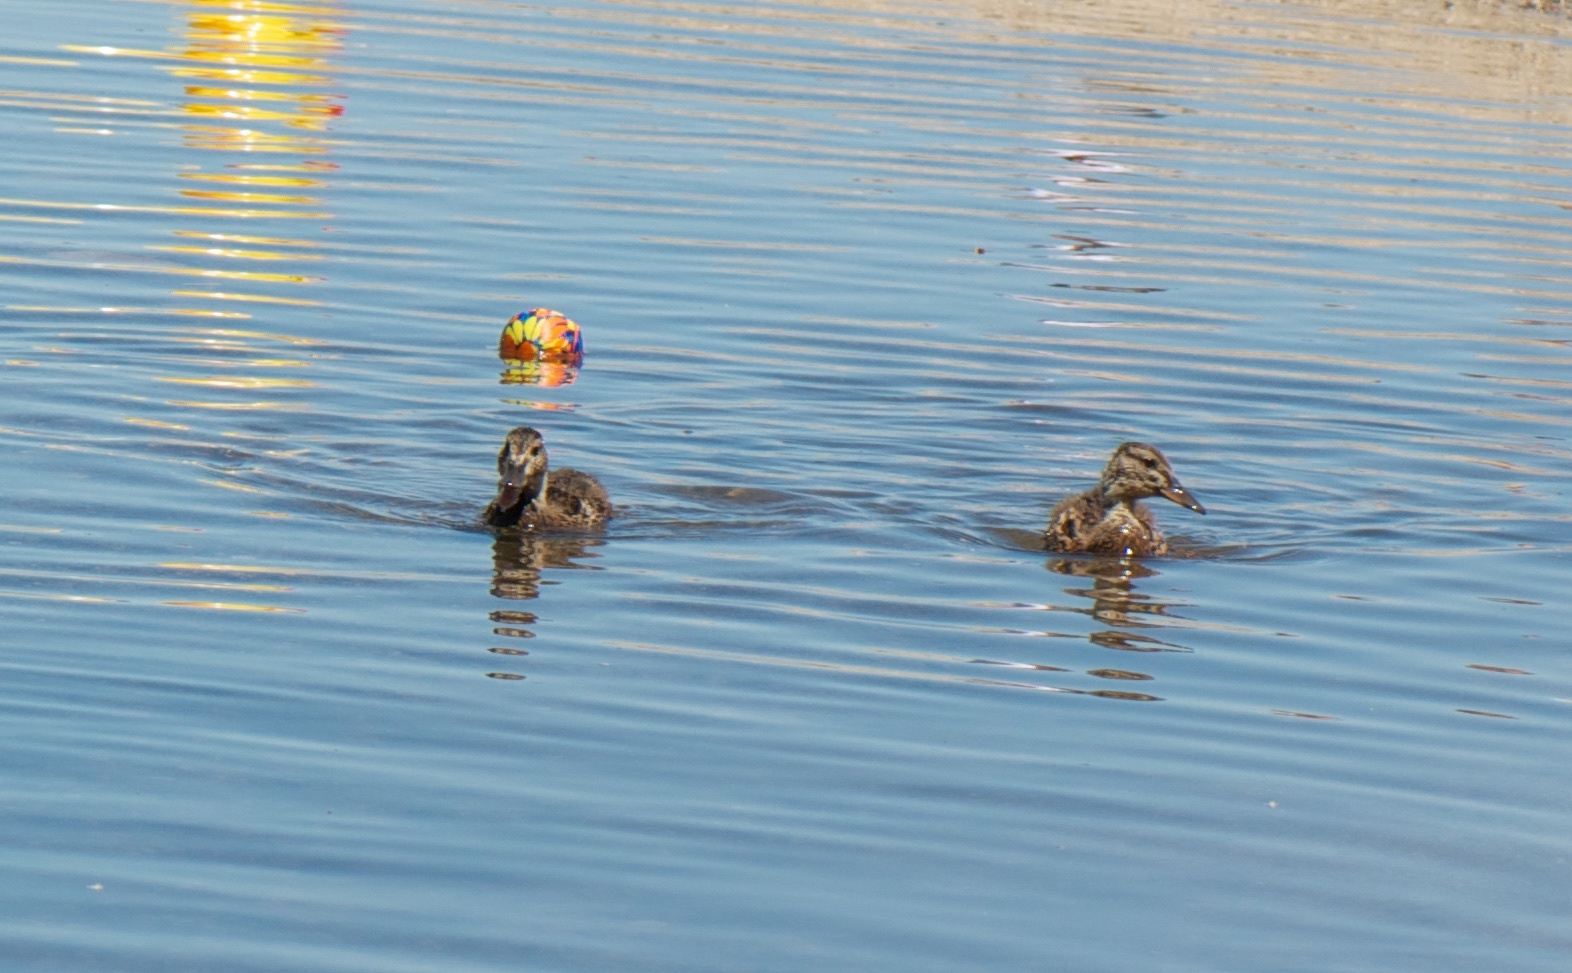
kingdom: Animalia
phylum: Chordata
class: Aves
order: Anseriformes
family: Anatidae
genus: Anas
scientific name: Anas platyrhynchos
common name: Mallard
